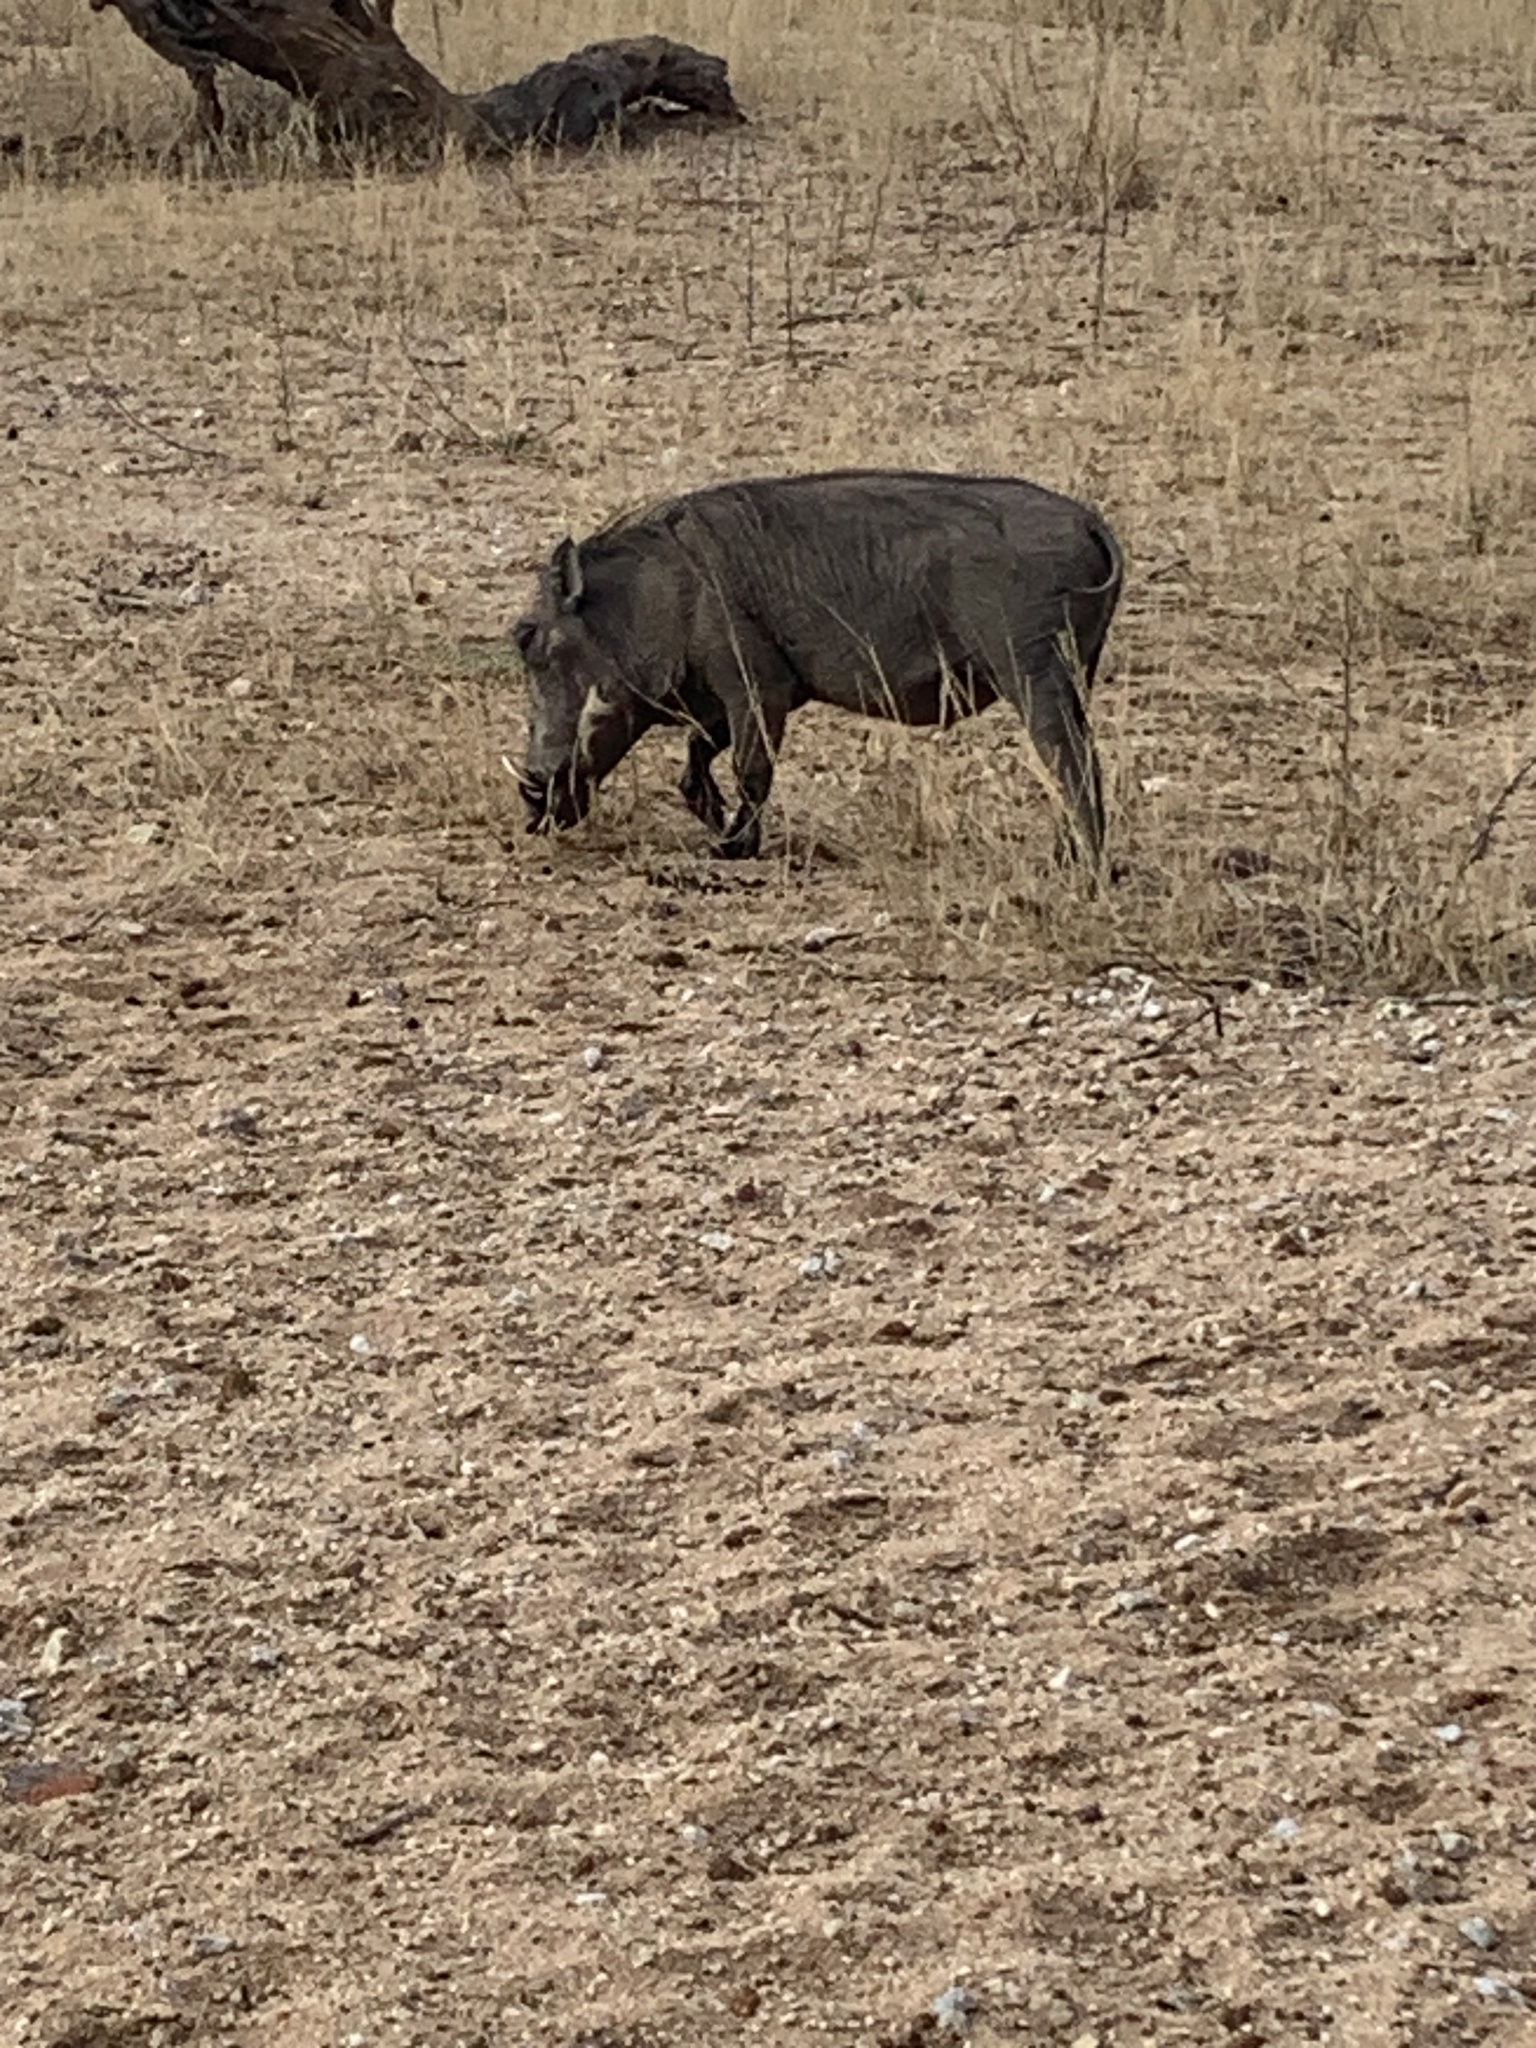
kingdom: Animalia
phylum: Chordata
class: Mammalia
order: Artiodactyla
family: Suidae
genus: Phacochoerus
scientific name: Phacochoerus africanus
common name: Common warthog
